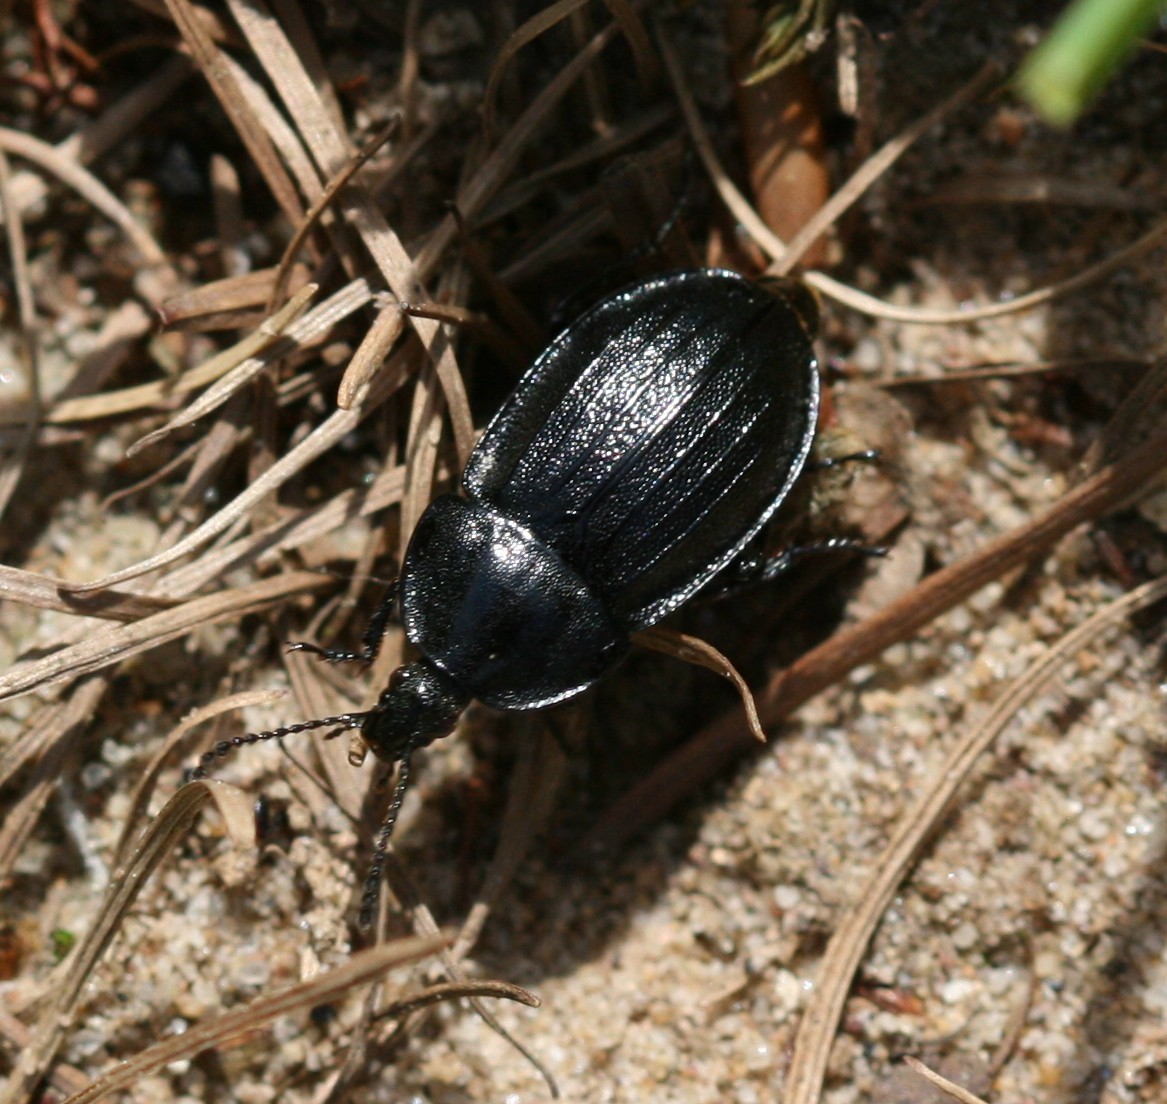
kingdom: Animalia
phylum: Arthropoda
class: Insecta
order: Coleoptera
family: Staphylinidae
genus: Silpha
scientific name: Silpha atrata
